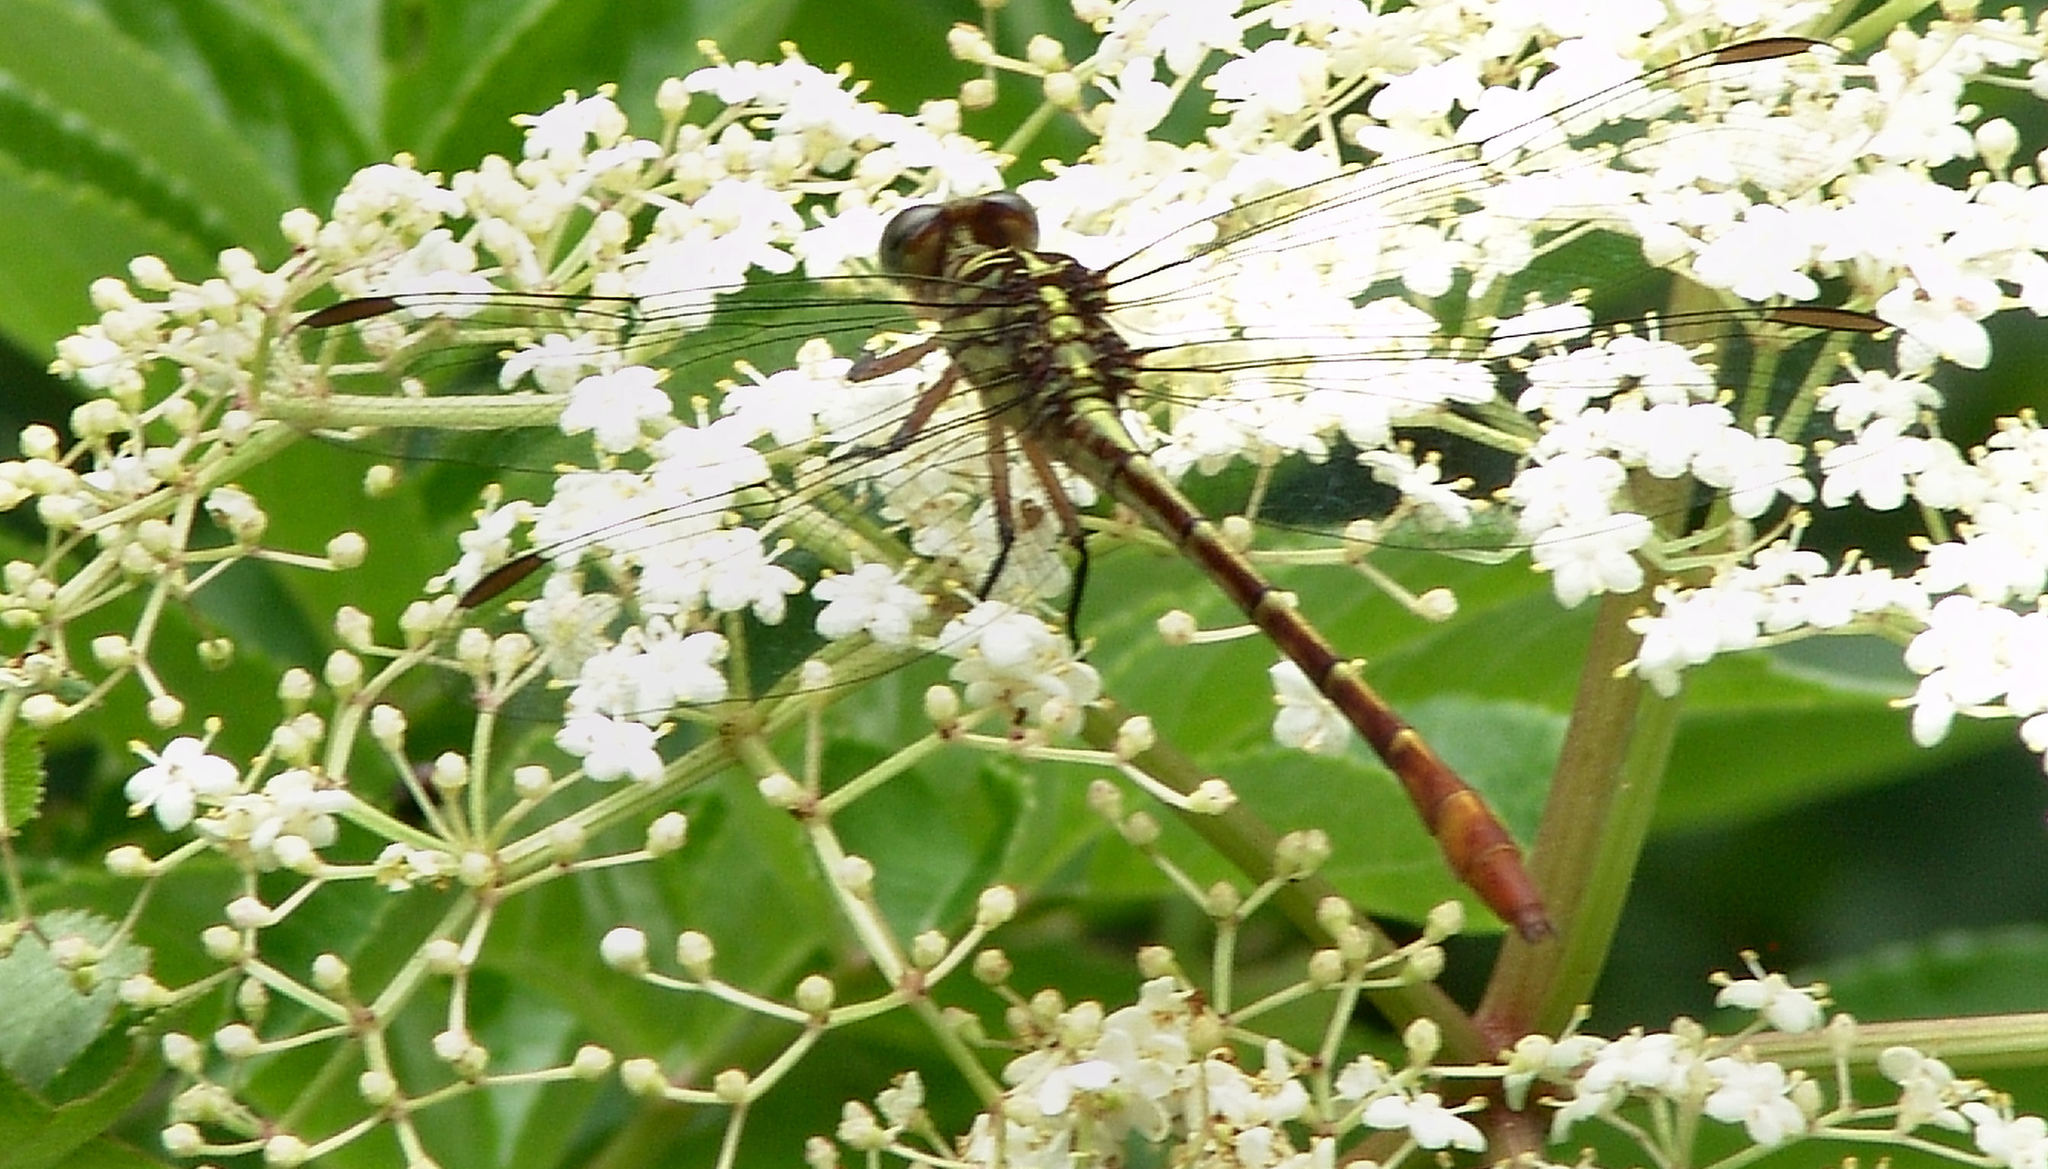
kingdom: Animalia
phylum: Arthropoda
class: Insecta
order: Odonata
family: Gomphidae
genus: Stylurus
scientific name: Stylurus plagiatus
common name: Russet-tipped clubtail
